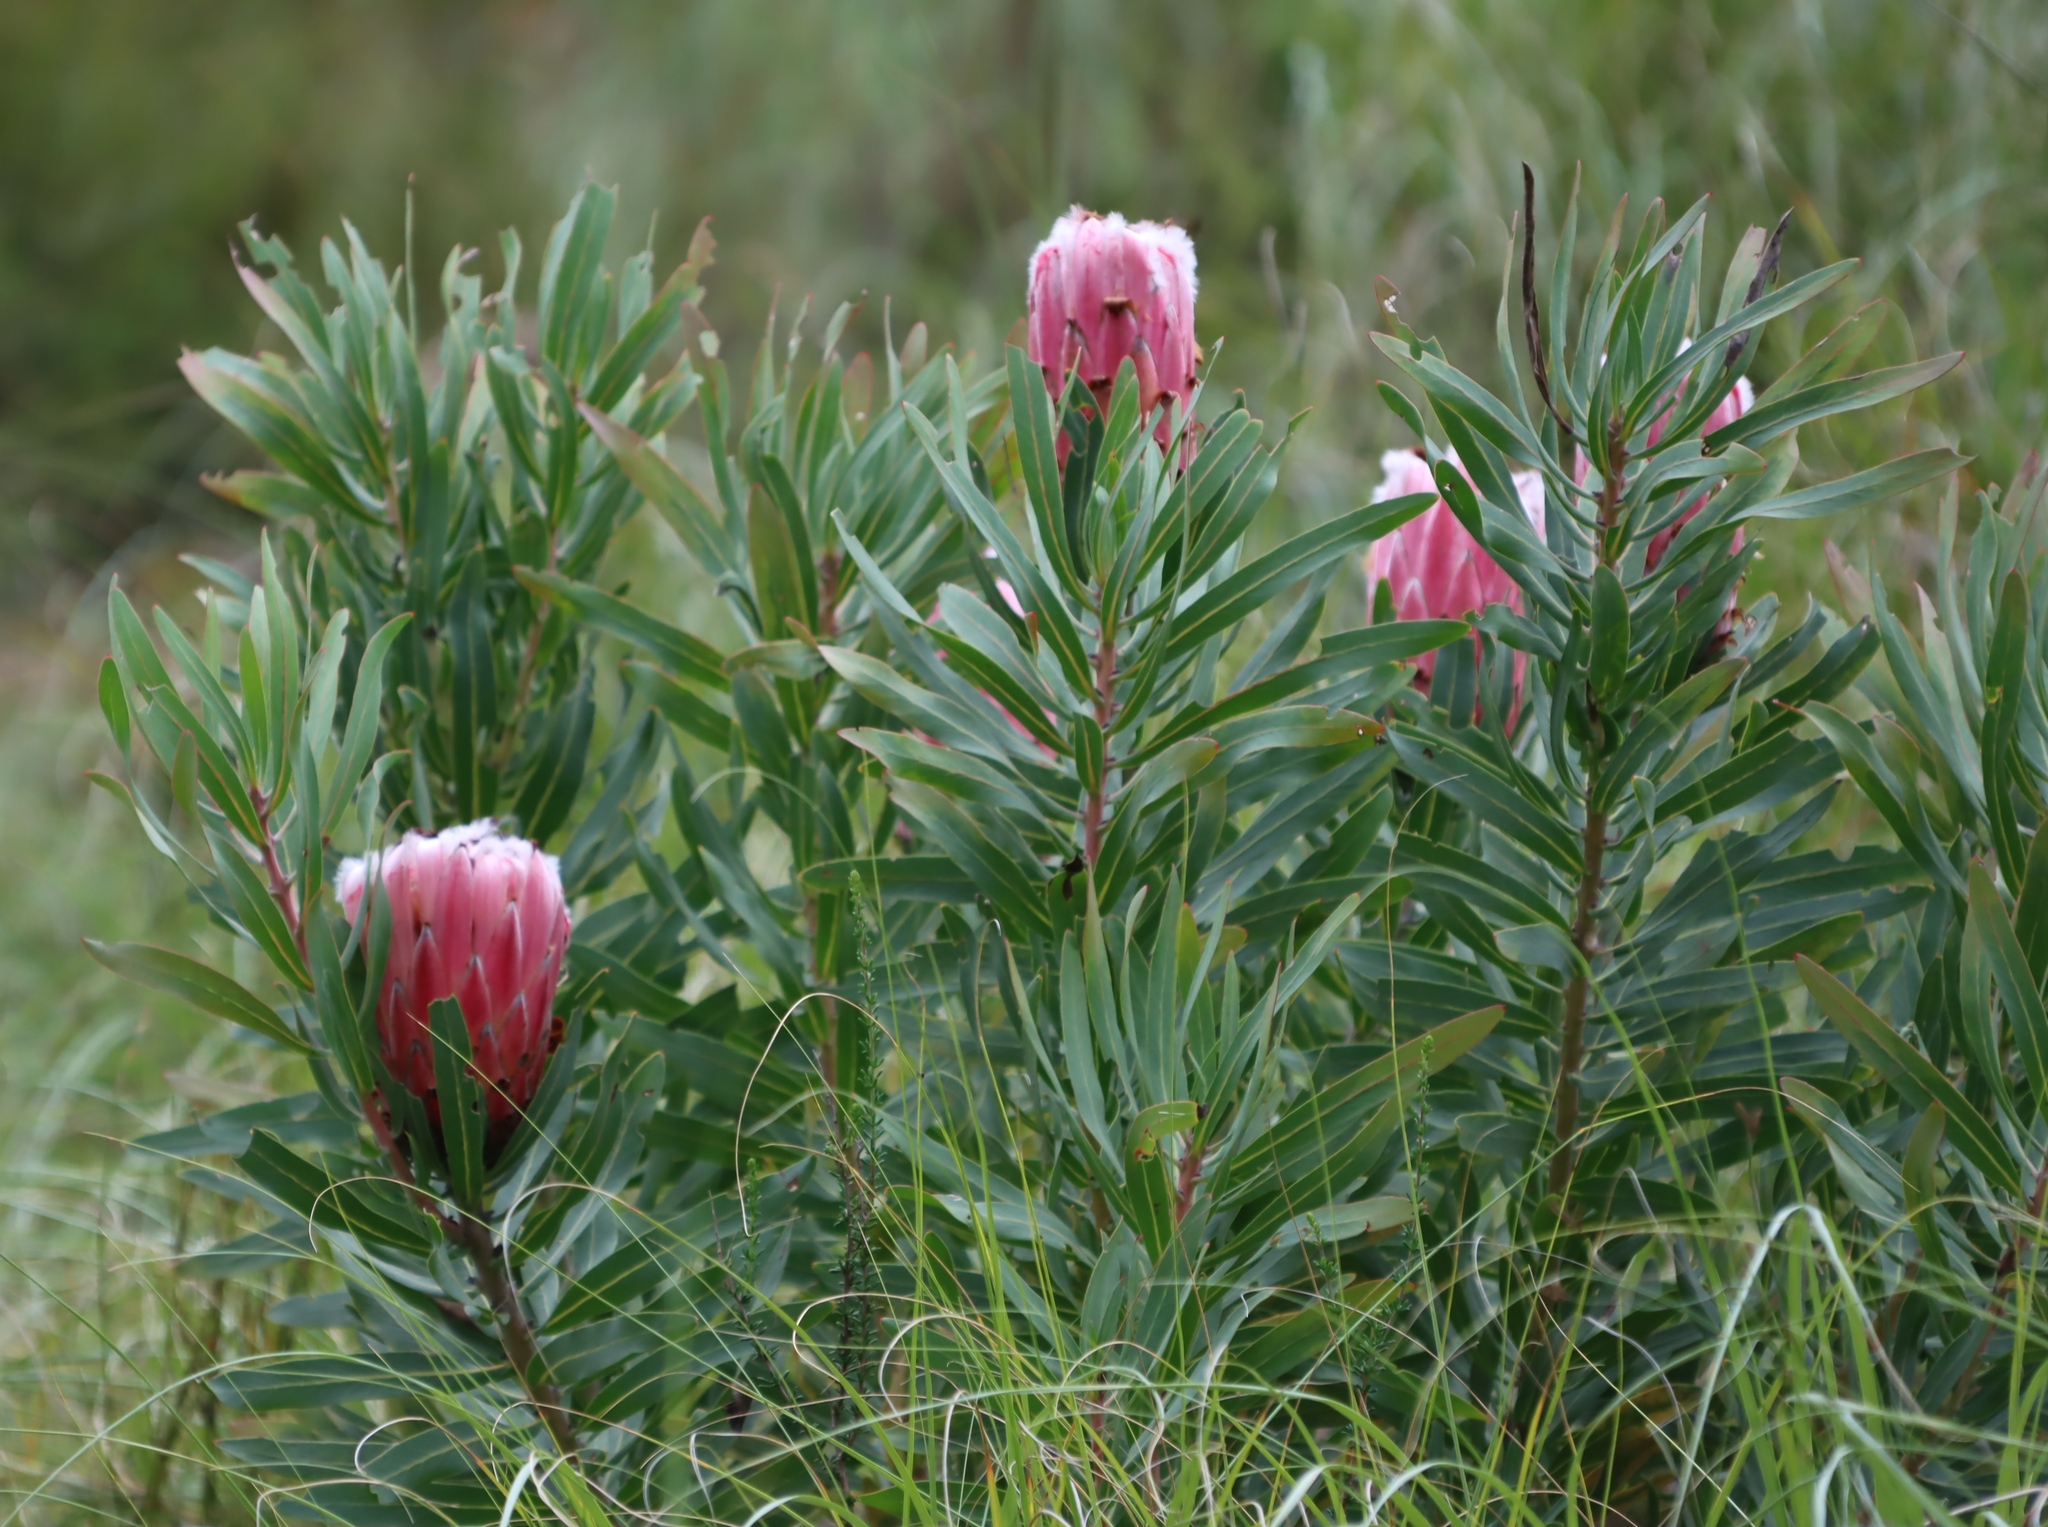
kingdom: Plantae
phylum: Tracheophyta
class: Magnoliopsida
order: Proteales
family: Proteaceae
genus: Protea
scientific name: Protea neriifolia
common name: Blue sugarbush
